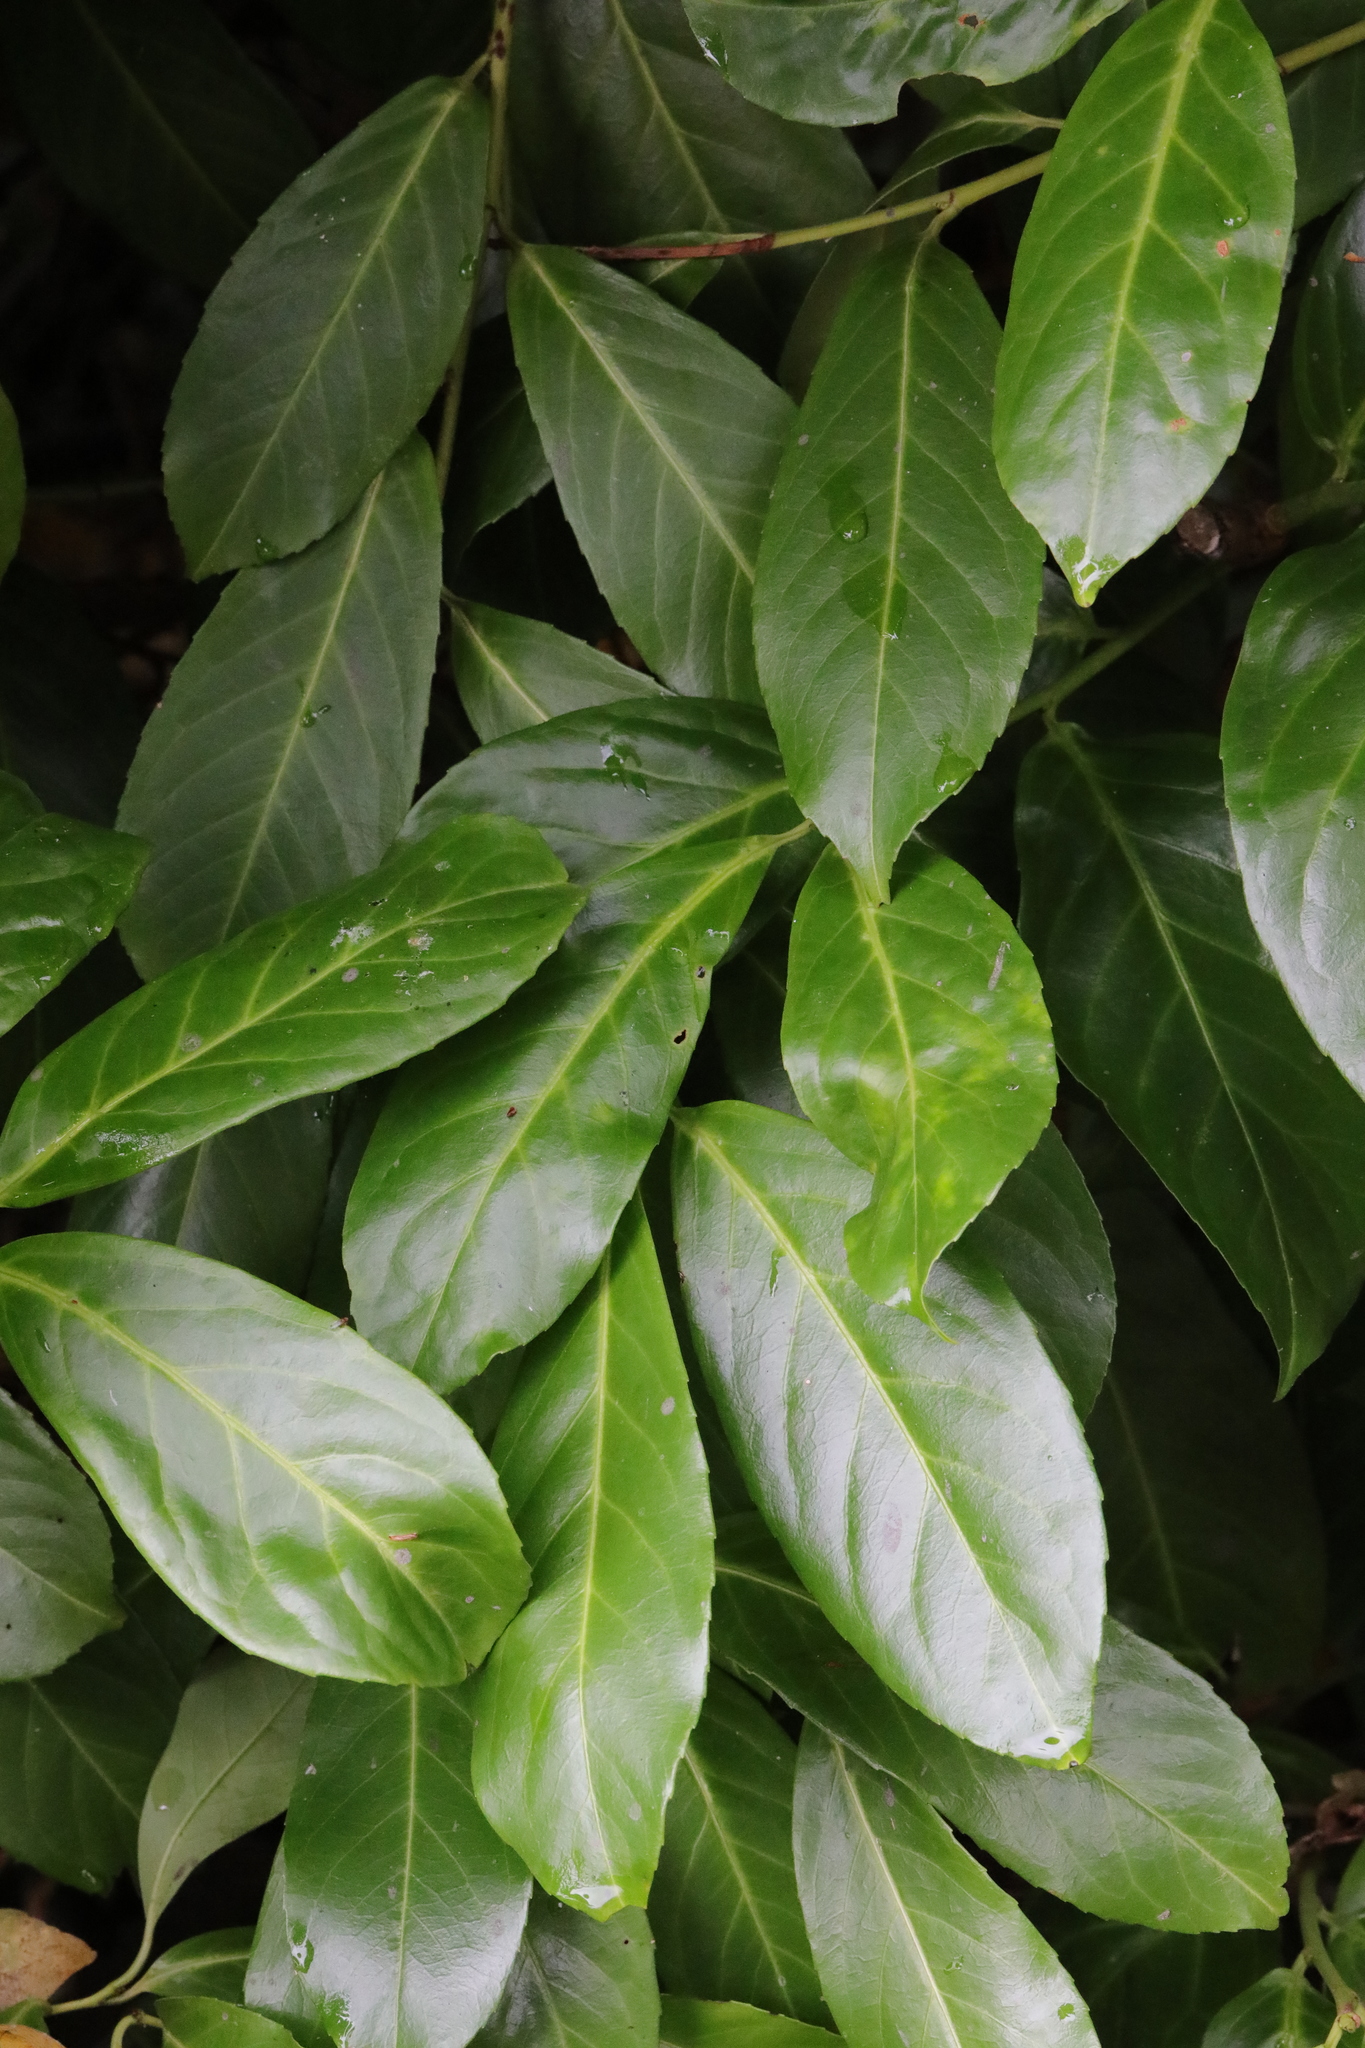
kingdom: Plantae
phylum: Tracheophyta
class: Magnoliopsida
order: Rosales
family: Rosaceae
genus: Prunus
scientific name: Prunus laurocerasus
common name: Cherry laurel
